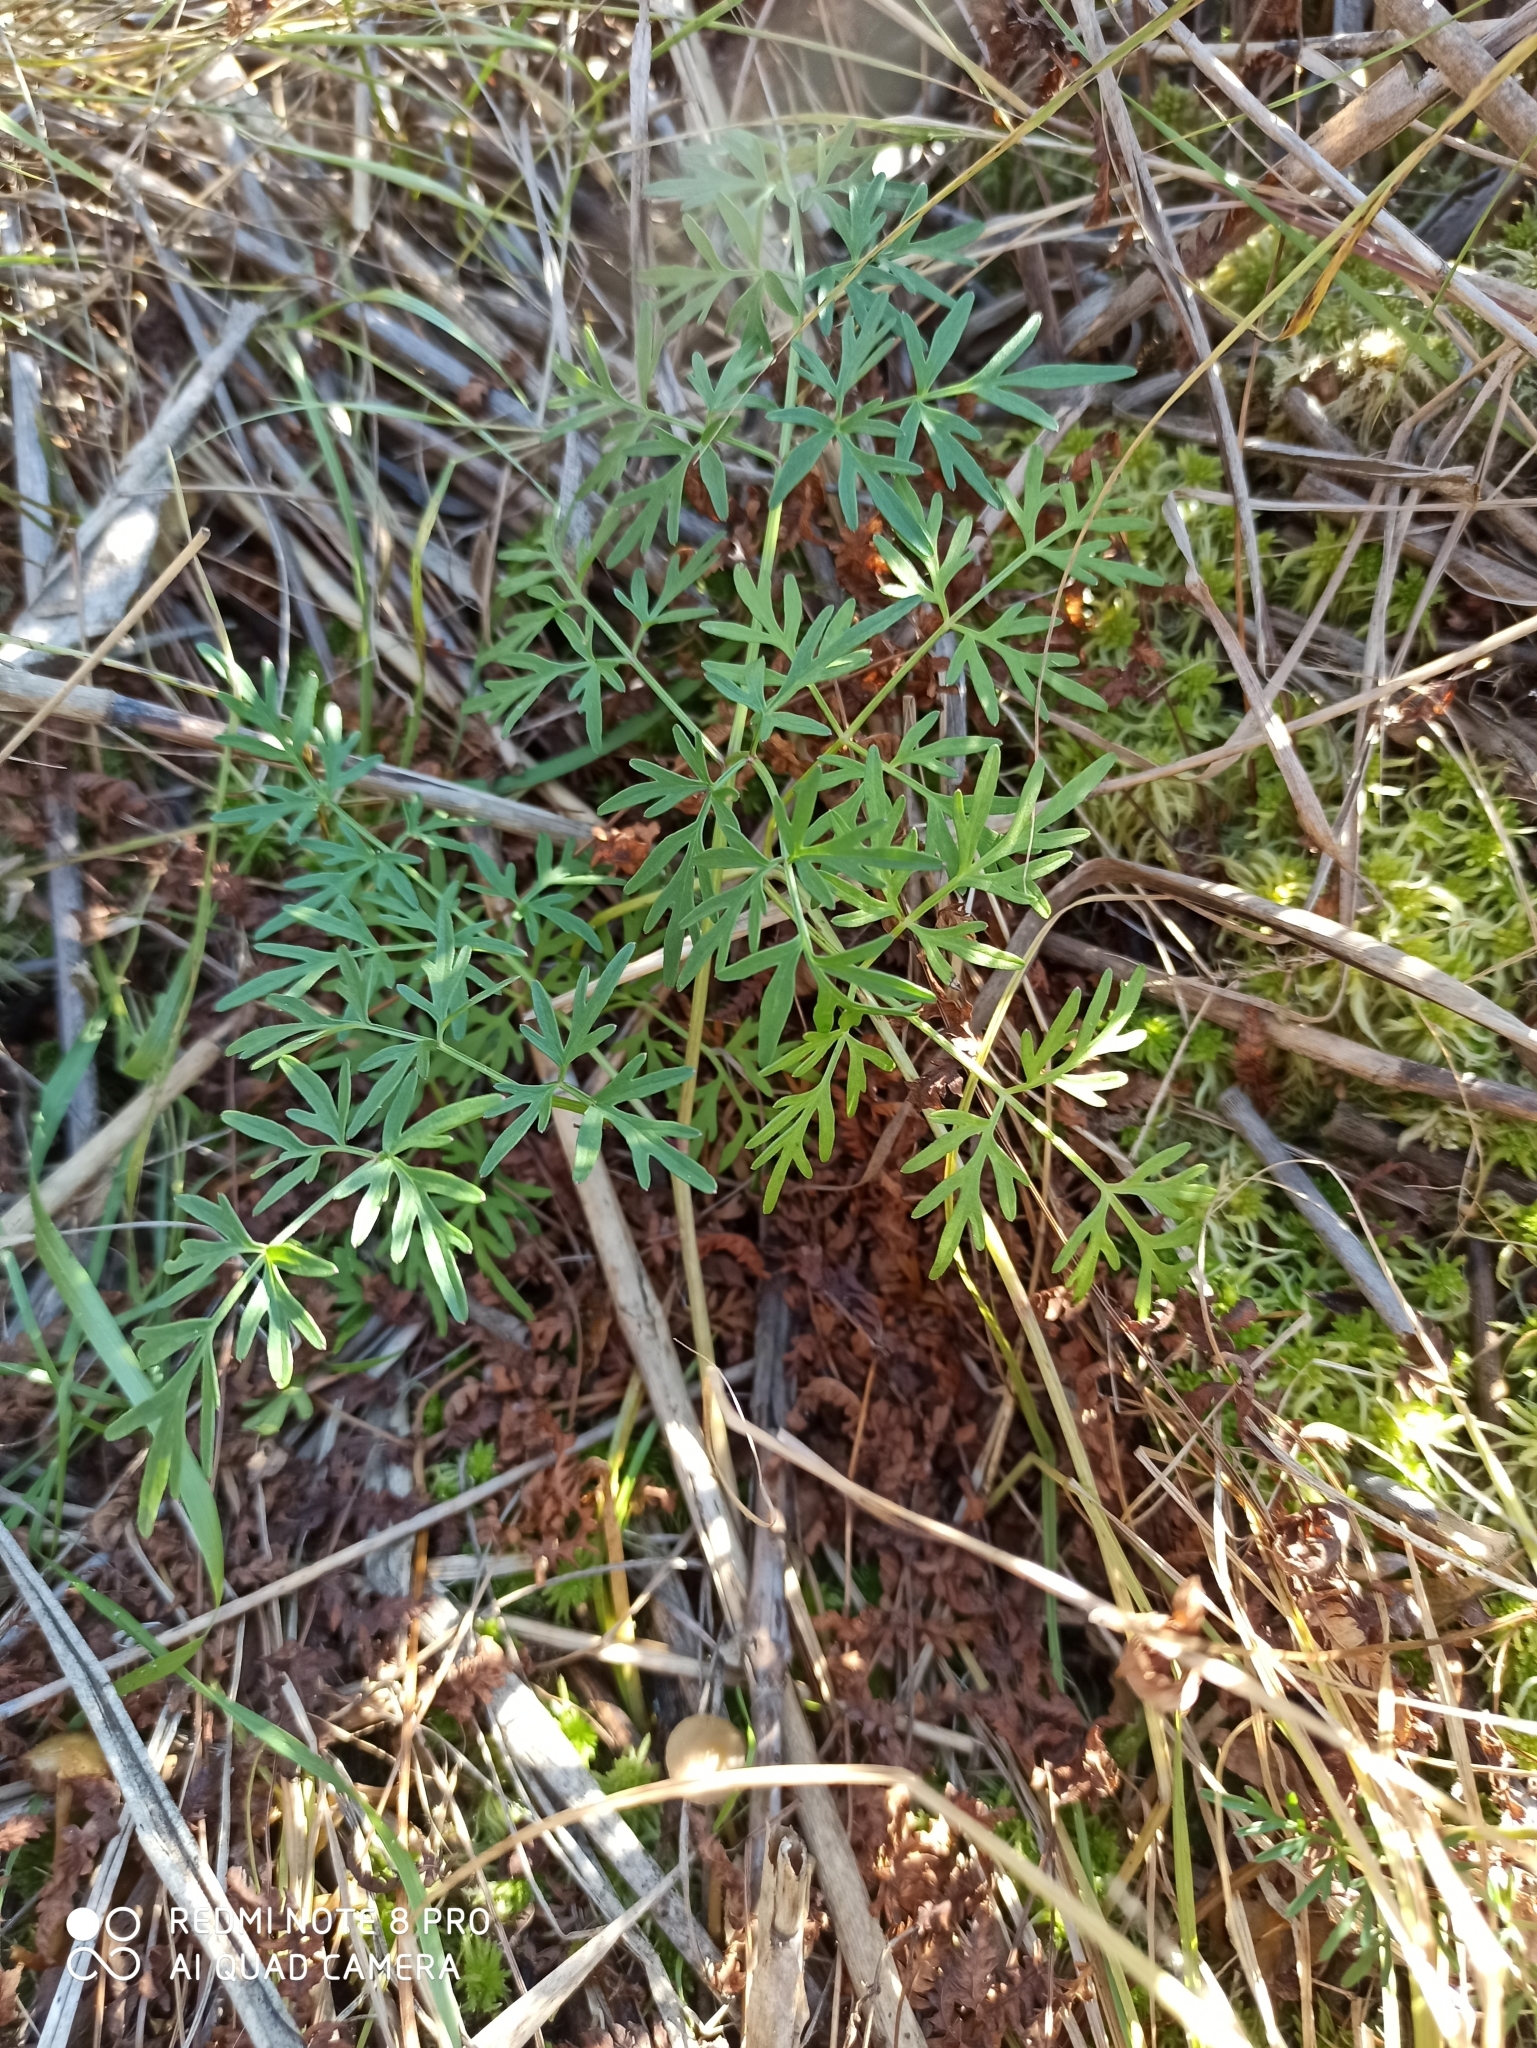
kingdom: Plantae
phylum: Tracheophyta
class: Magnoliopsida
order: Apiales
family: Apiaceae
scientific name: Apiaceae
